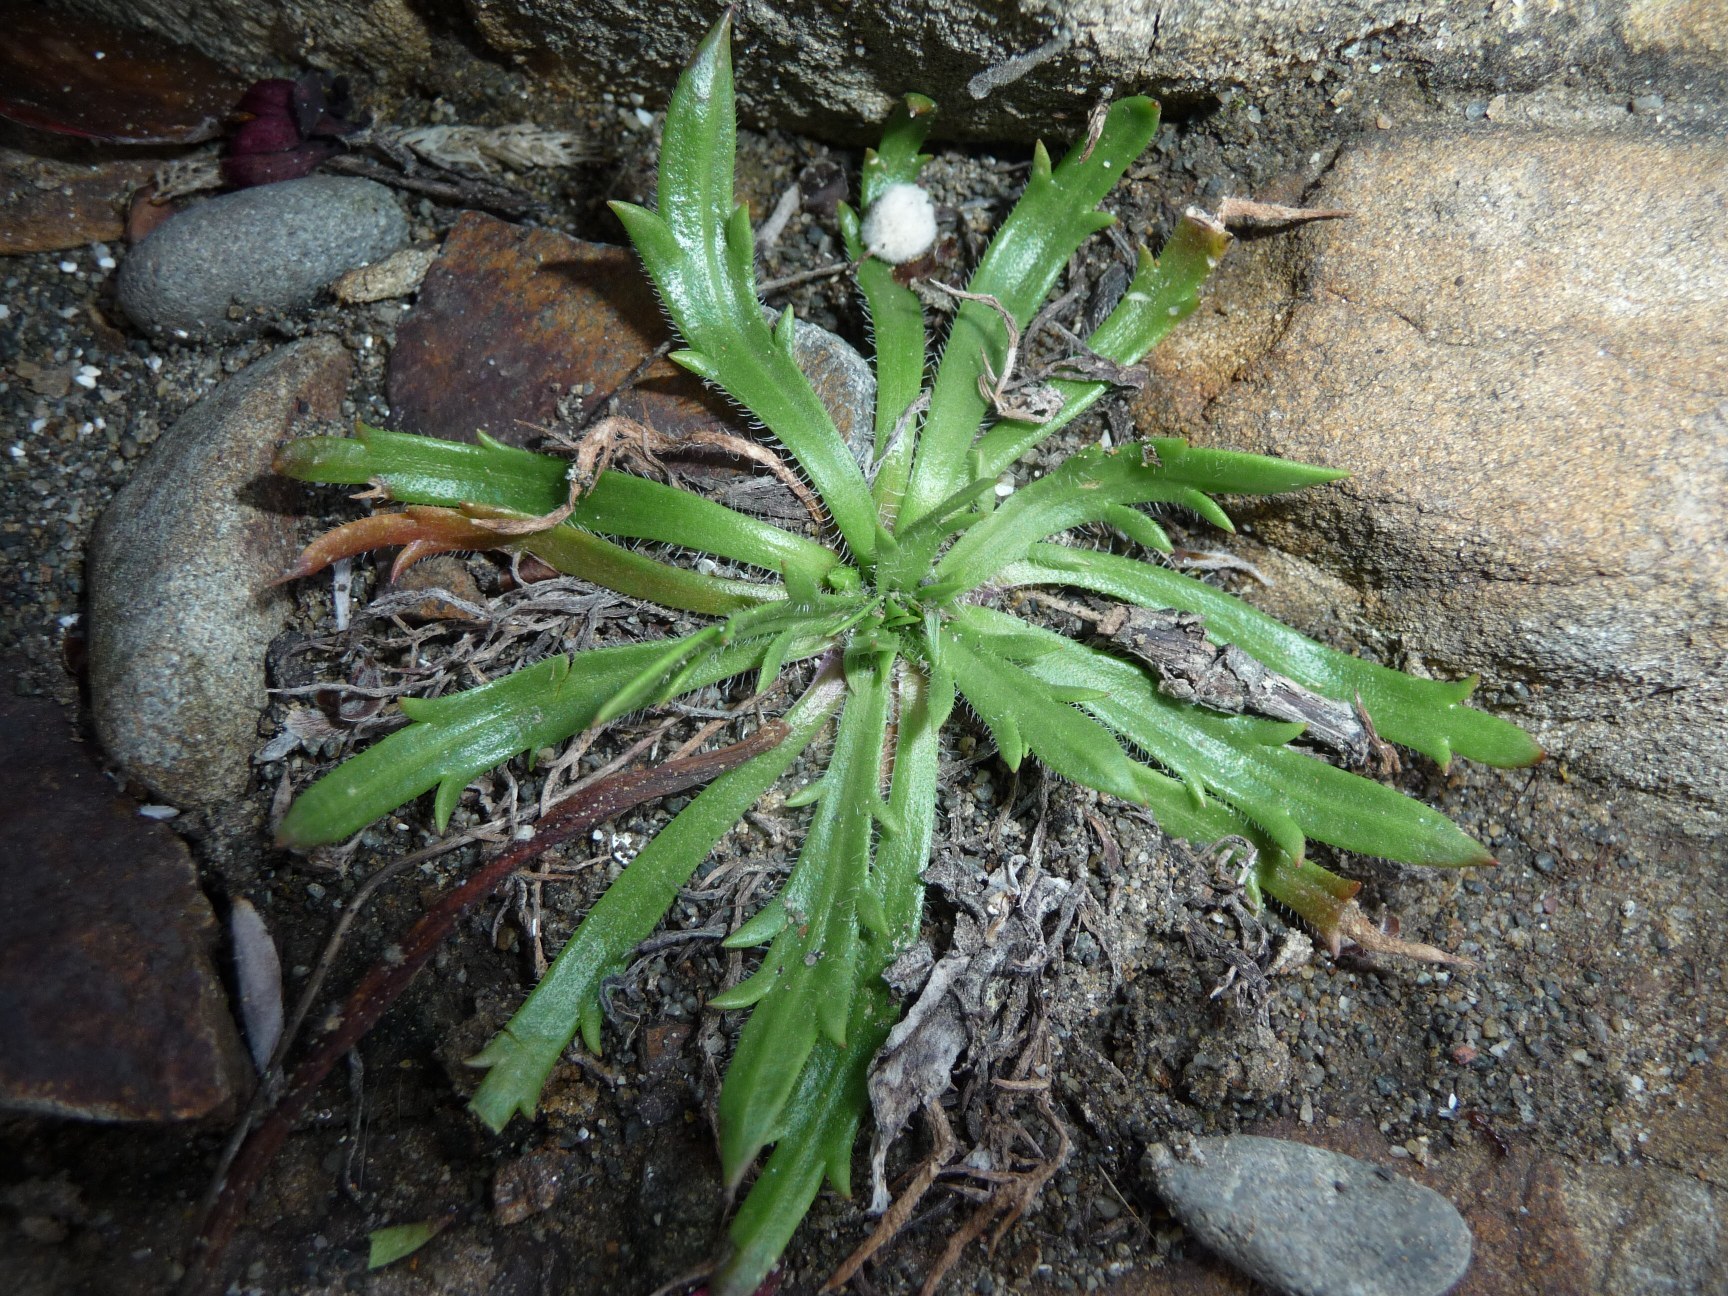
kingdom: Plantae
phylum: Tracheophyta
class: Magnoliopsida
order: Lamiales
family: Plantaginaceae
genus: Plantago
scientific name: Plantago coronopus
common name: Buck's-horn plantain
